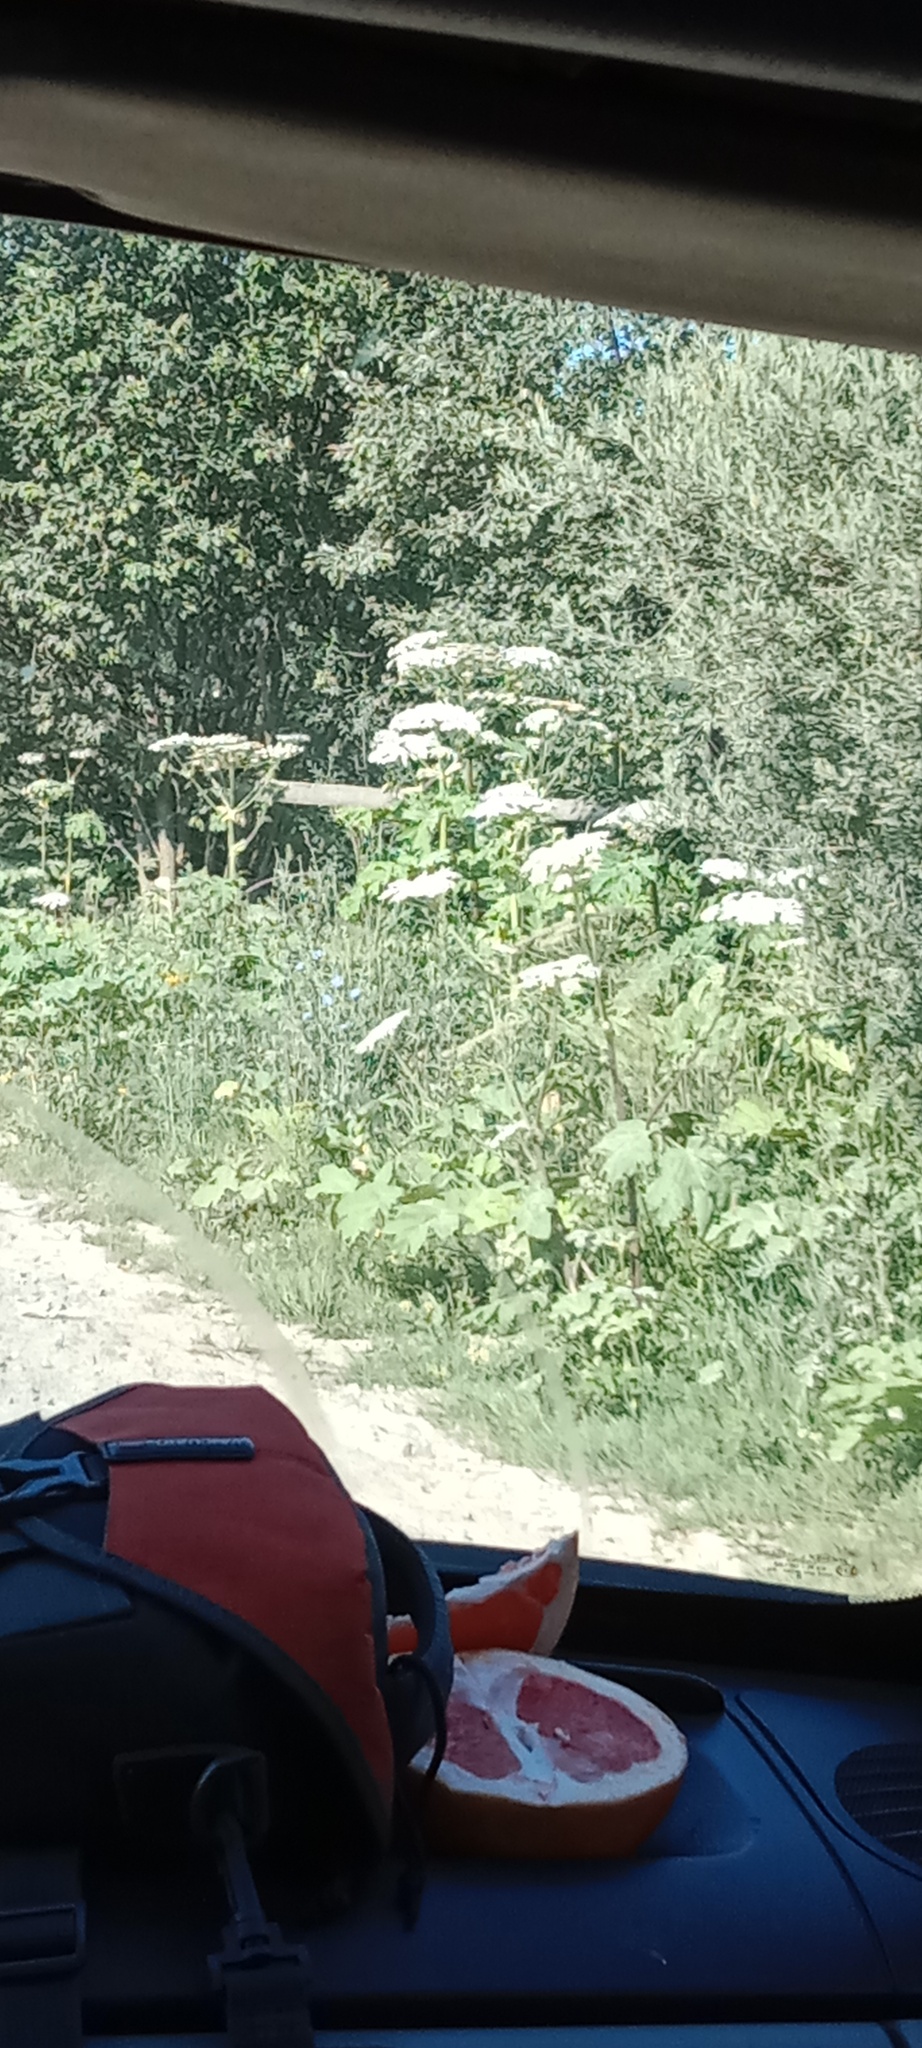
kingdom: Plantae
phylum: Tracheophyta
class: Magnoliopsida
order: Apiales
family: Apiaceae
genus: Heracleum
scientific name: Heracleum sosnowskyi
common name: Sosnowsky's hogweed
